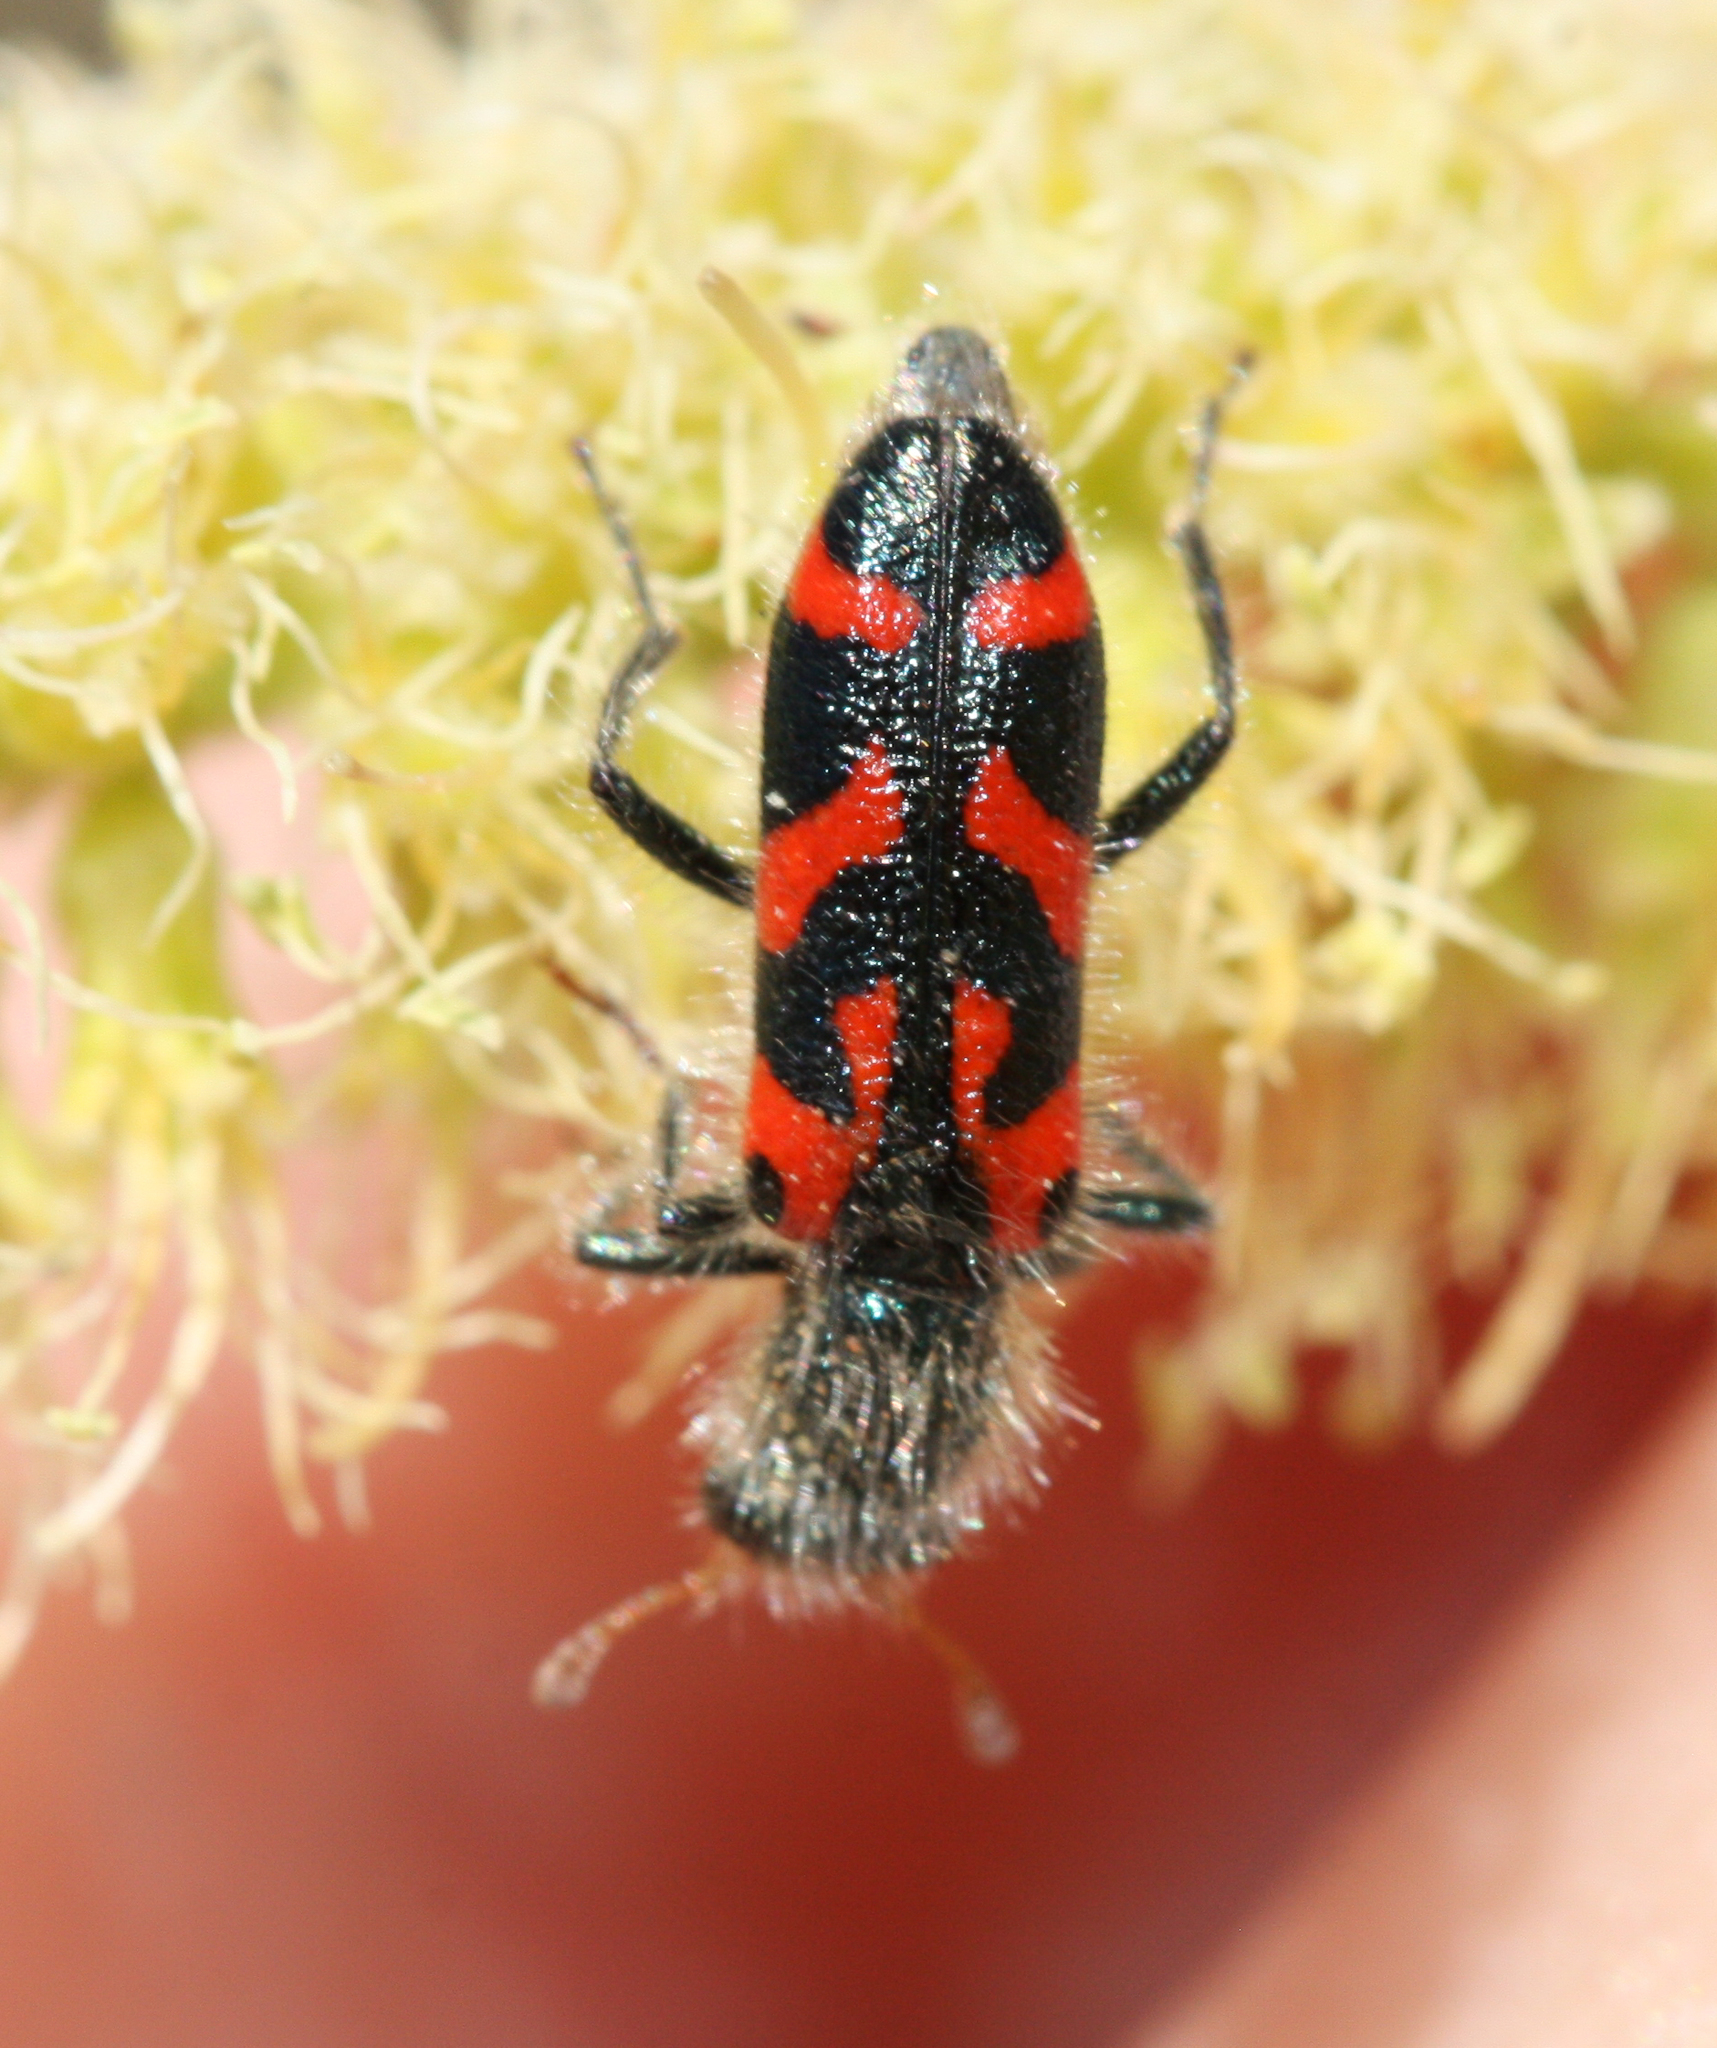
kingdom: Animalia
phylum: Arthropoda
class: Insecta
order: Coleoptera
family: Cleridae
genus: Trichodes
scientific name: Trichodes ornatus
